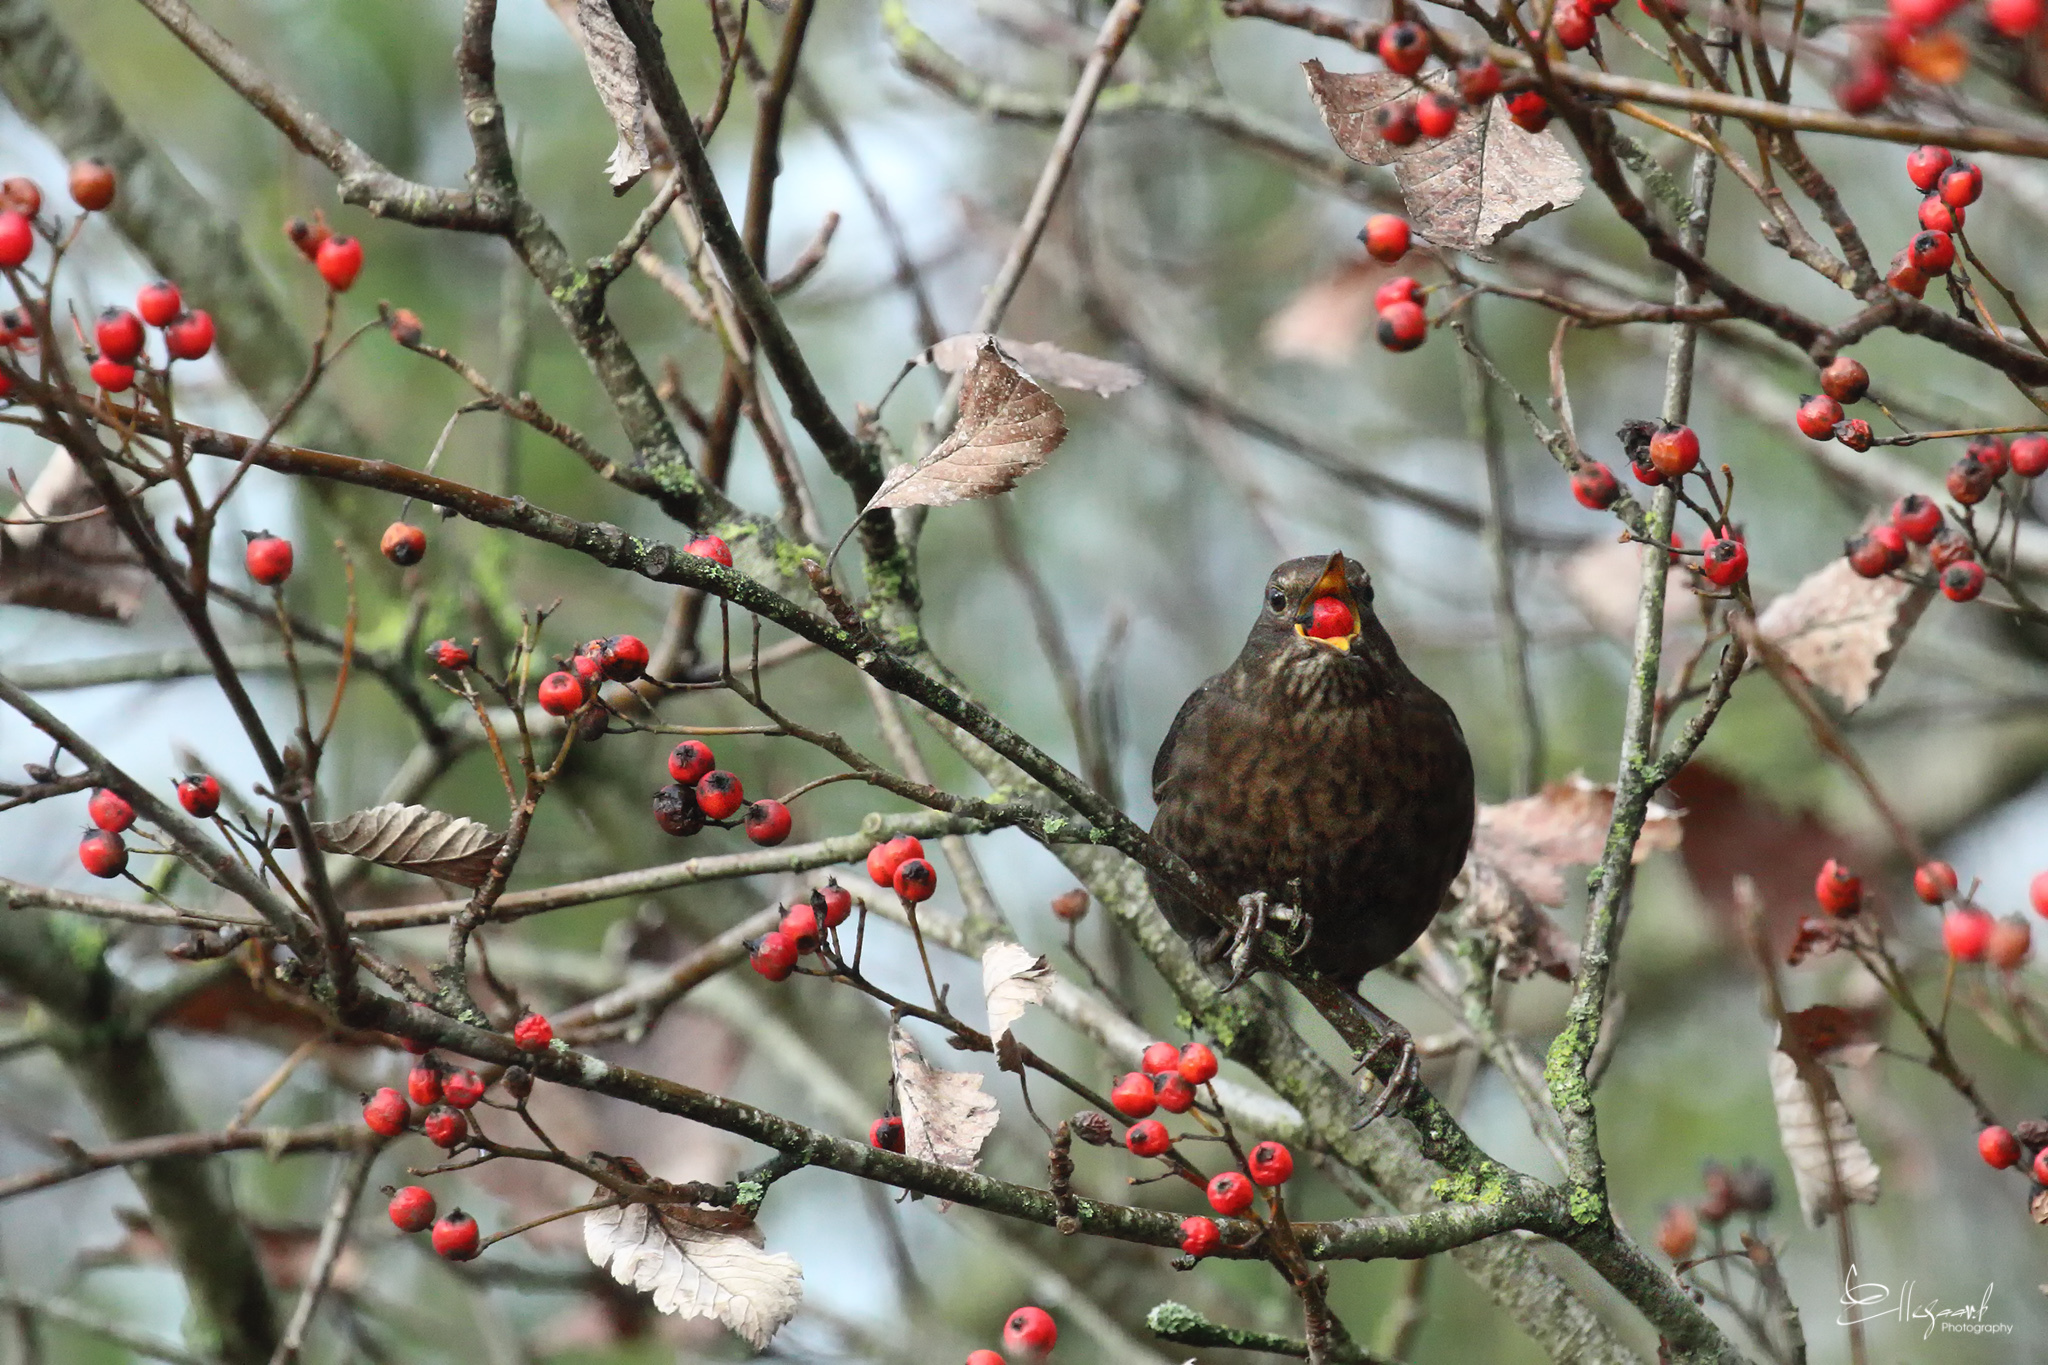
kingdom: Animalia
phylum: Chordata
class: Aves
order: Passeriformes
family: Turdidae
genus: Turdus
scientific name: Turdus merula
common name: Common blackbird
